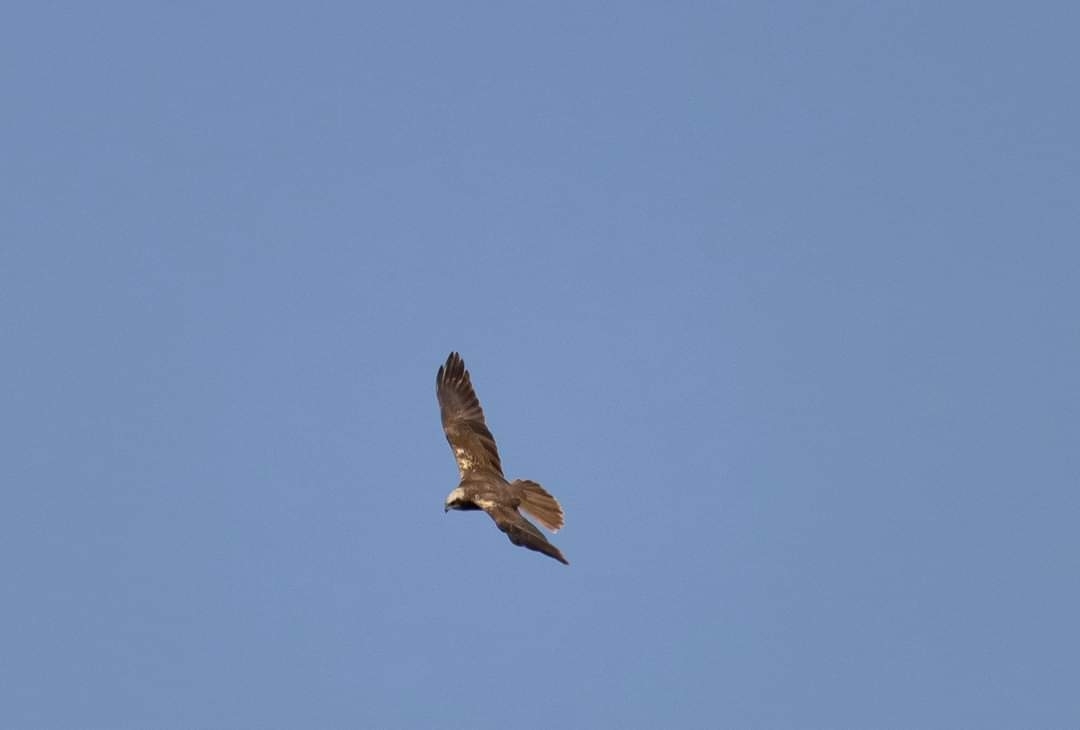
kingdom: Animalia
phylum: Chordata
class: Aves
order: Accipitriformes
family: Accipitridae
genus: Circus
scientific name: Circus aeruginosus
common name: Western marsh harrier
